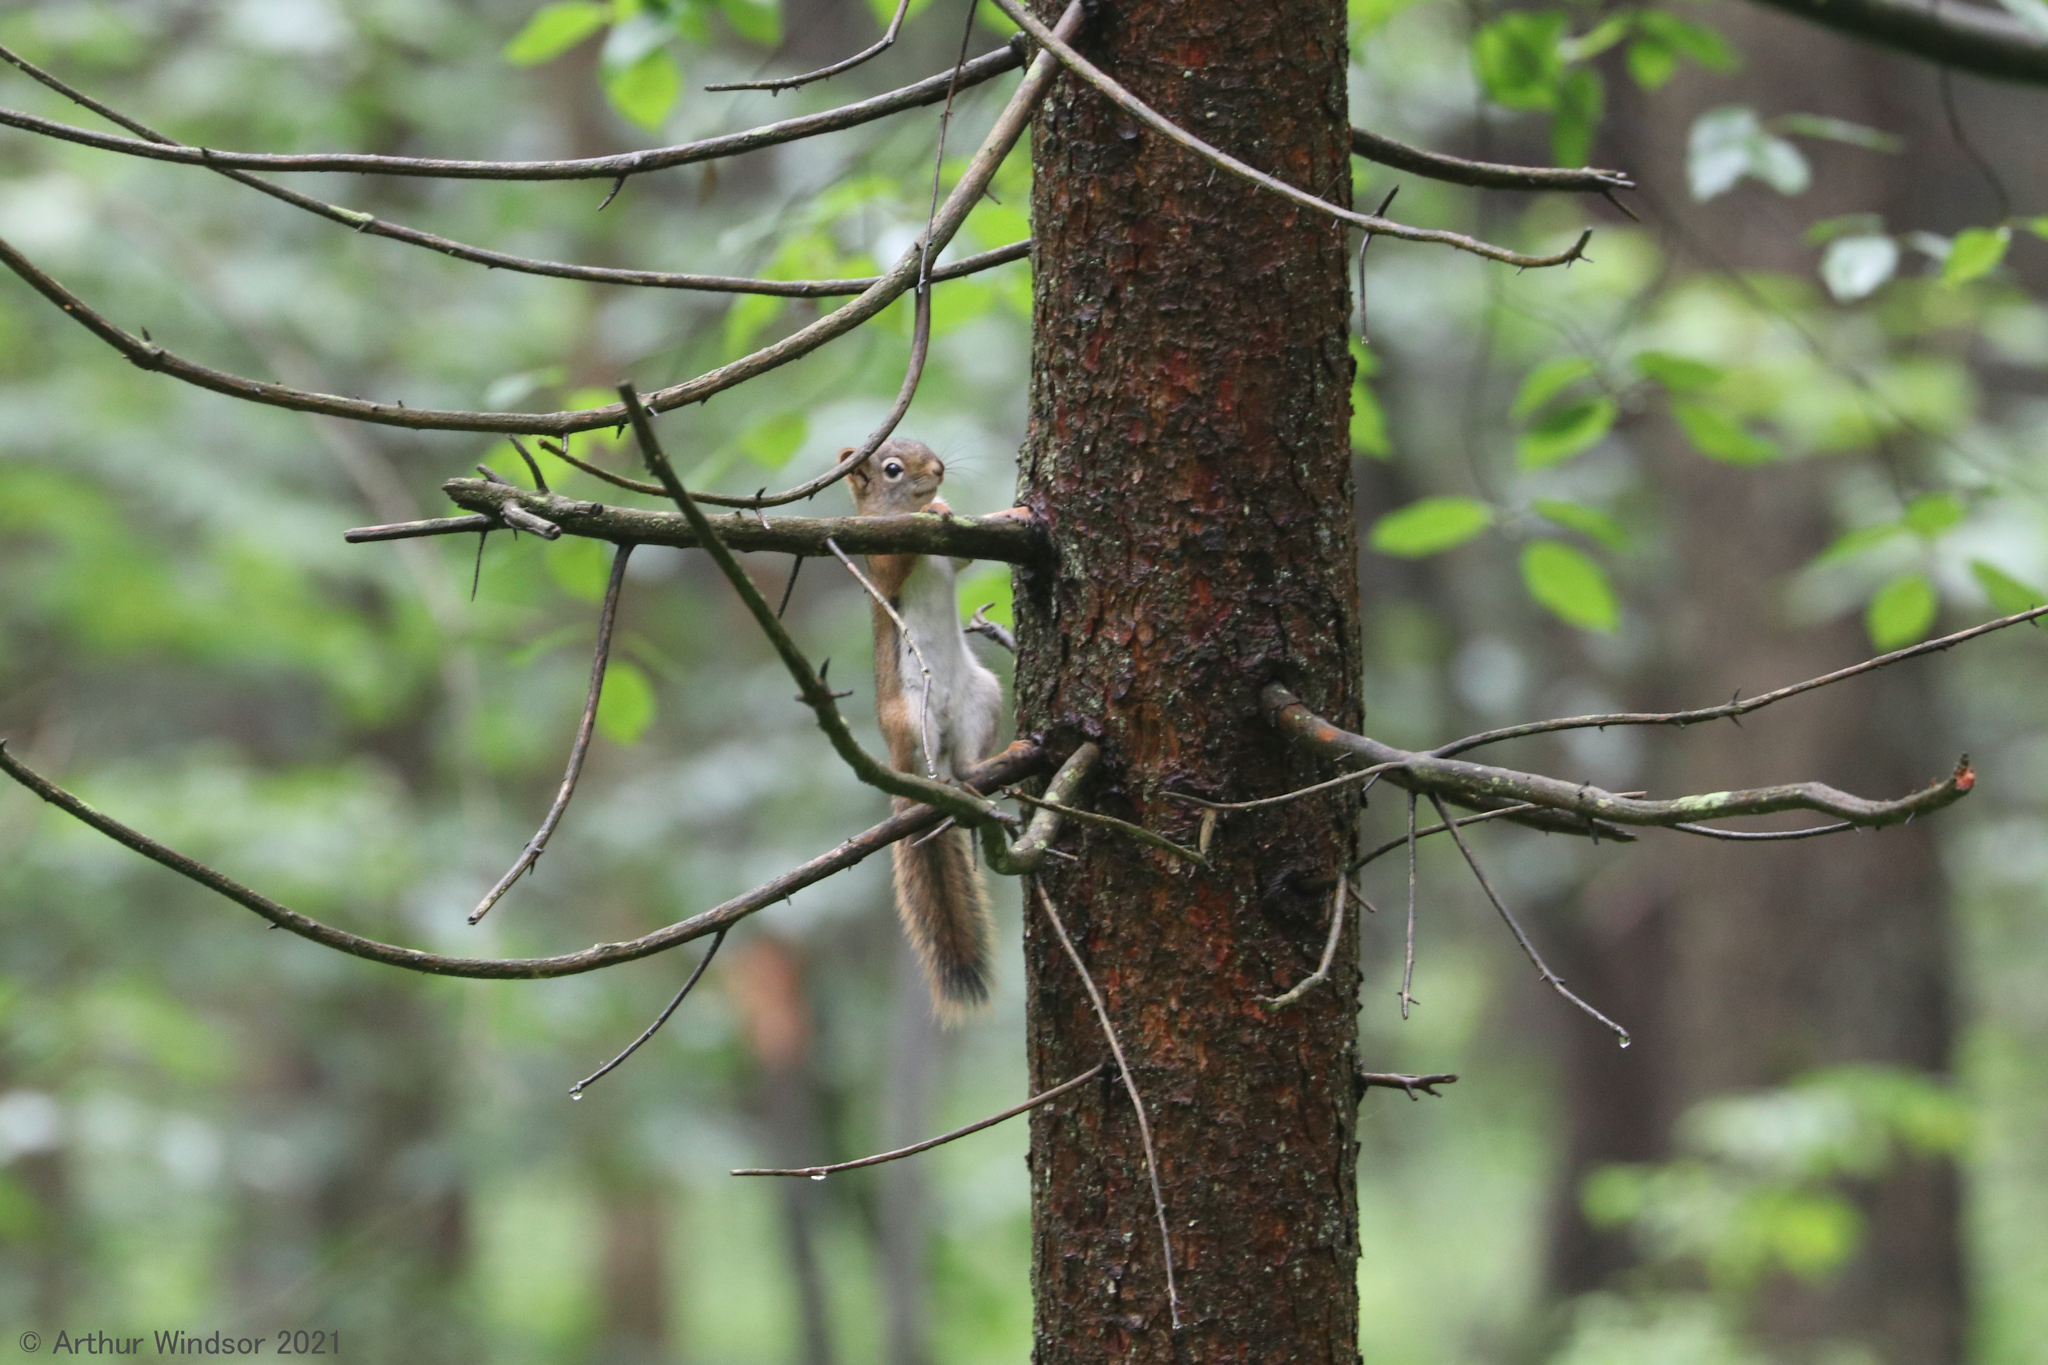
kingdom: Animalia
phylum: Chordata
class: Mammalia
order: Rodentia
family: Sciuridae
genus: Tamiasciurus
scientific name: Tamiasciurus hudsonicus
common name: Red squirrel
